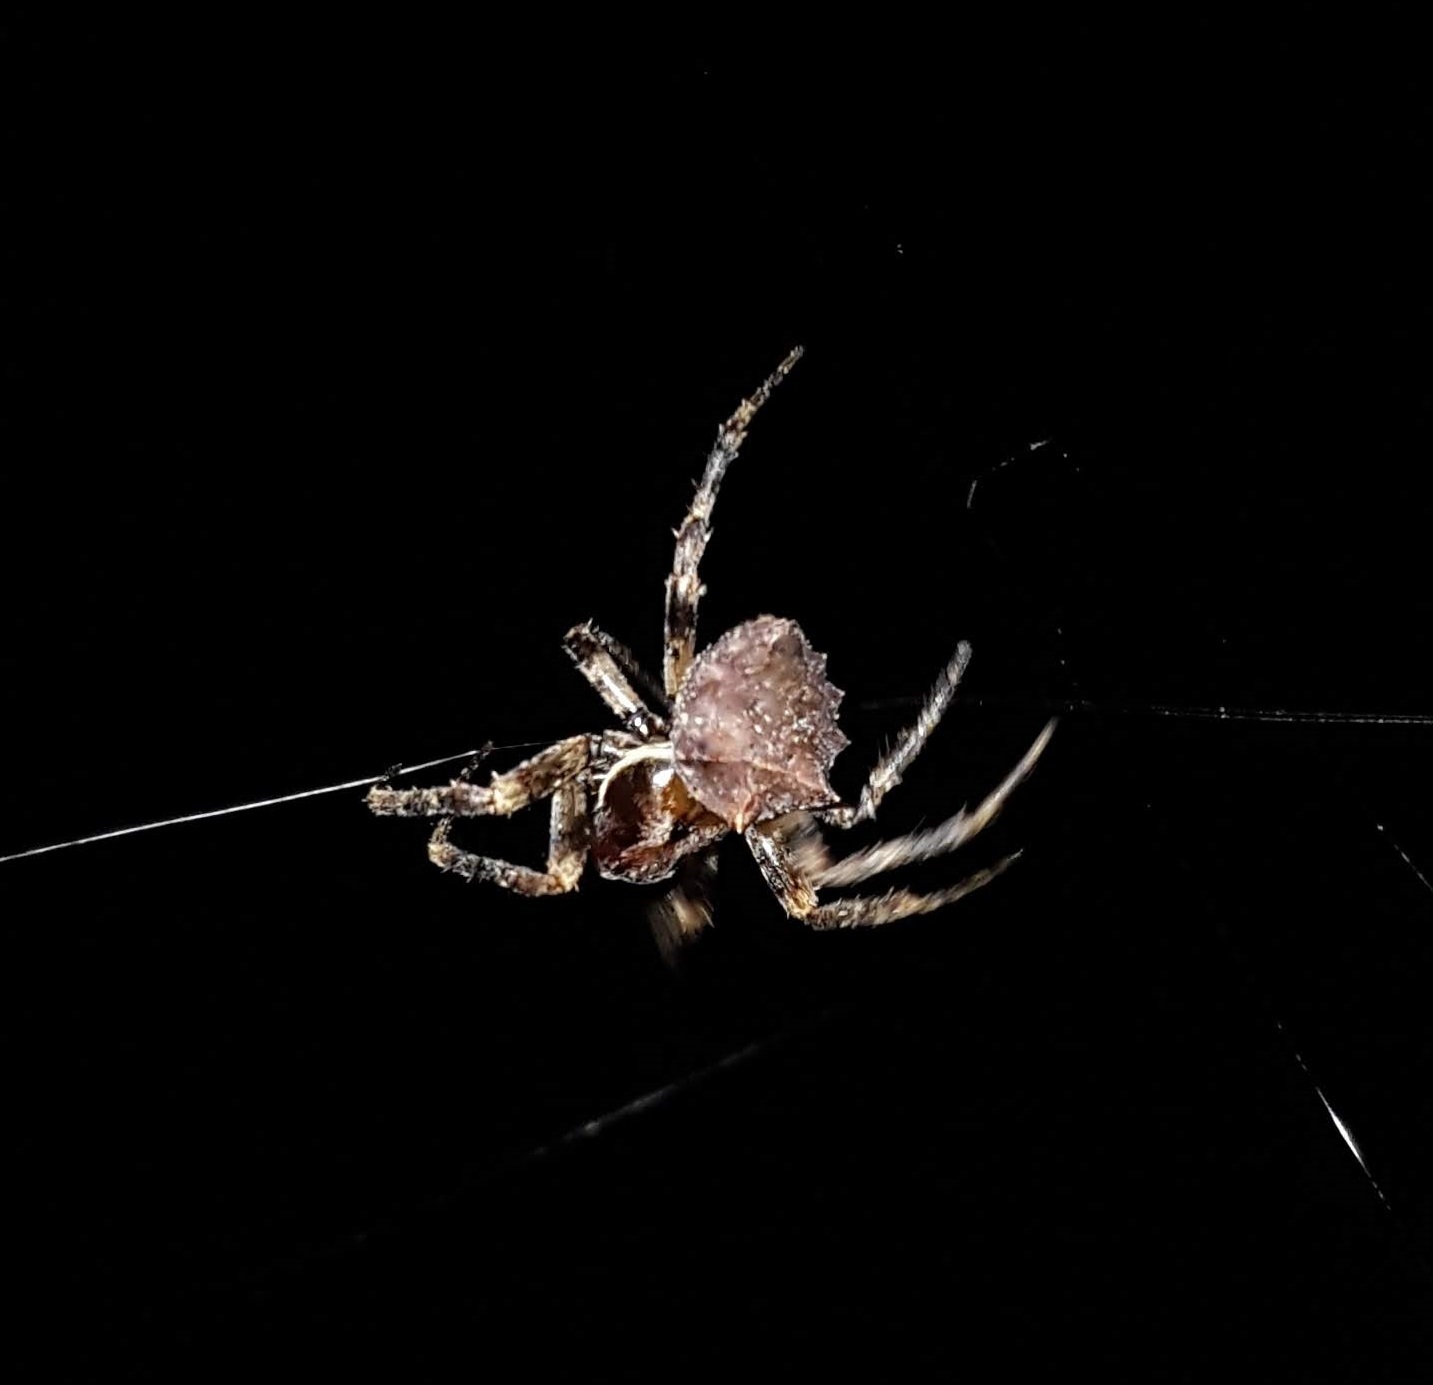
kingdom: Animalia
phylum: Arthropoda
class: Arachnida
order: Araneae
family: Araneidae
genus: Acanthepeira
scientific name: Acanthepeira stellata
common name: Starbellied orbweaver
